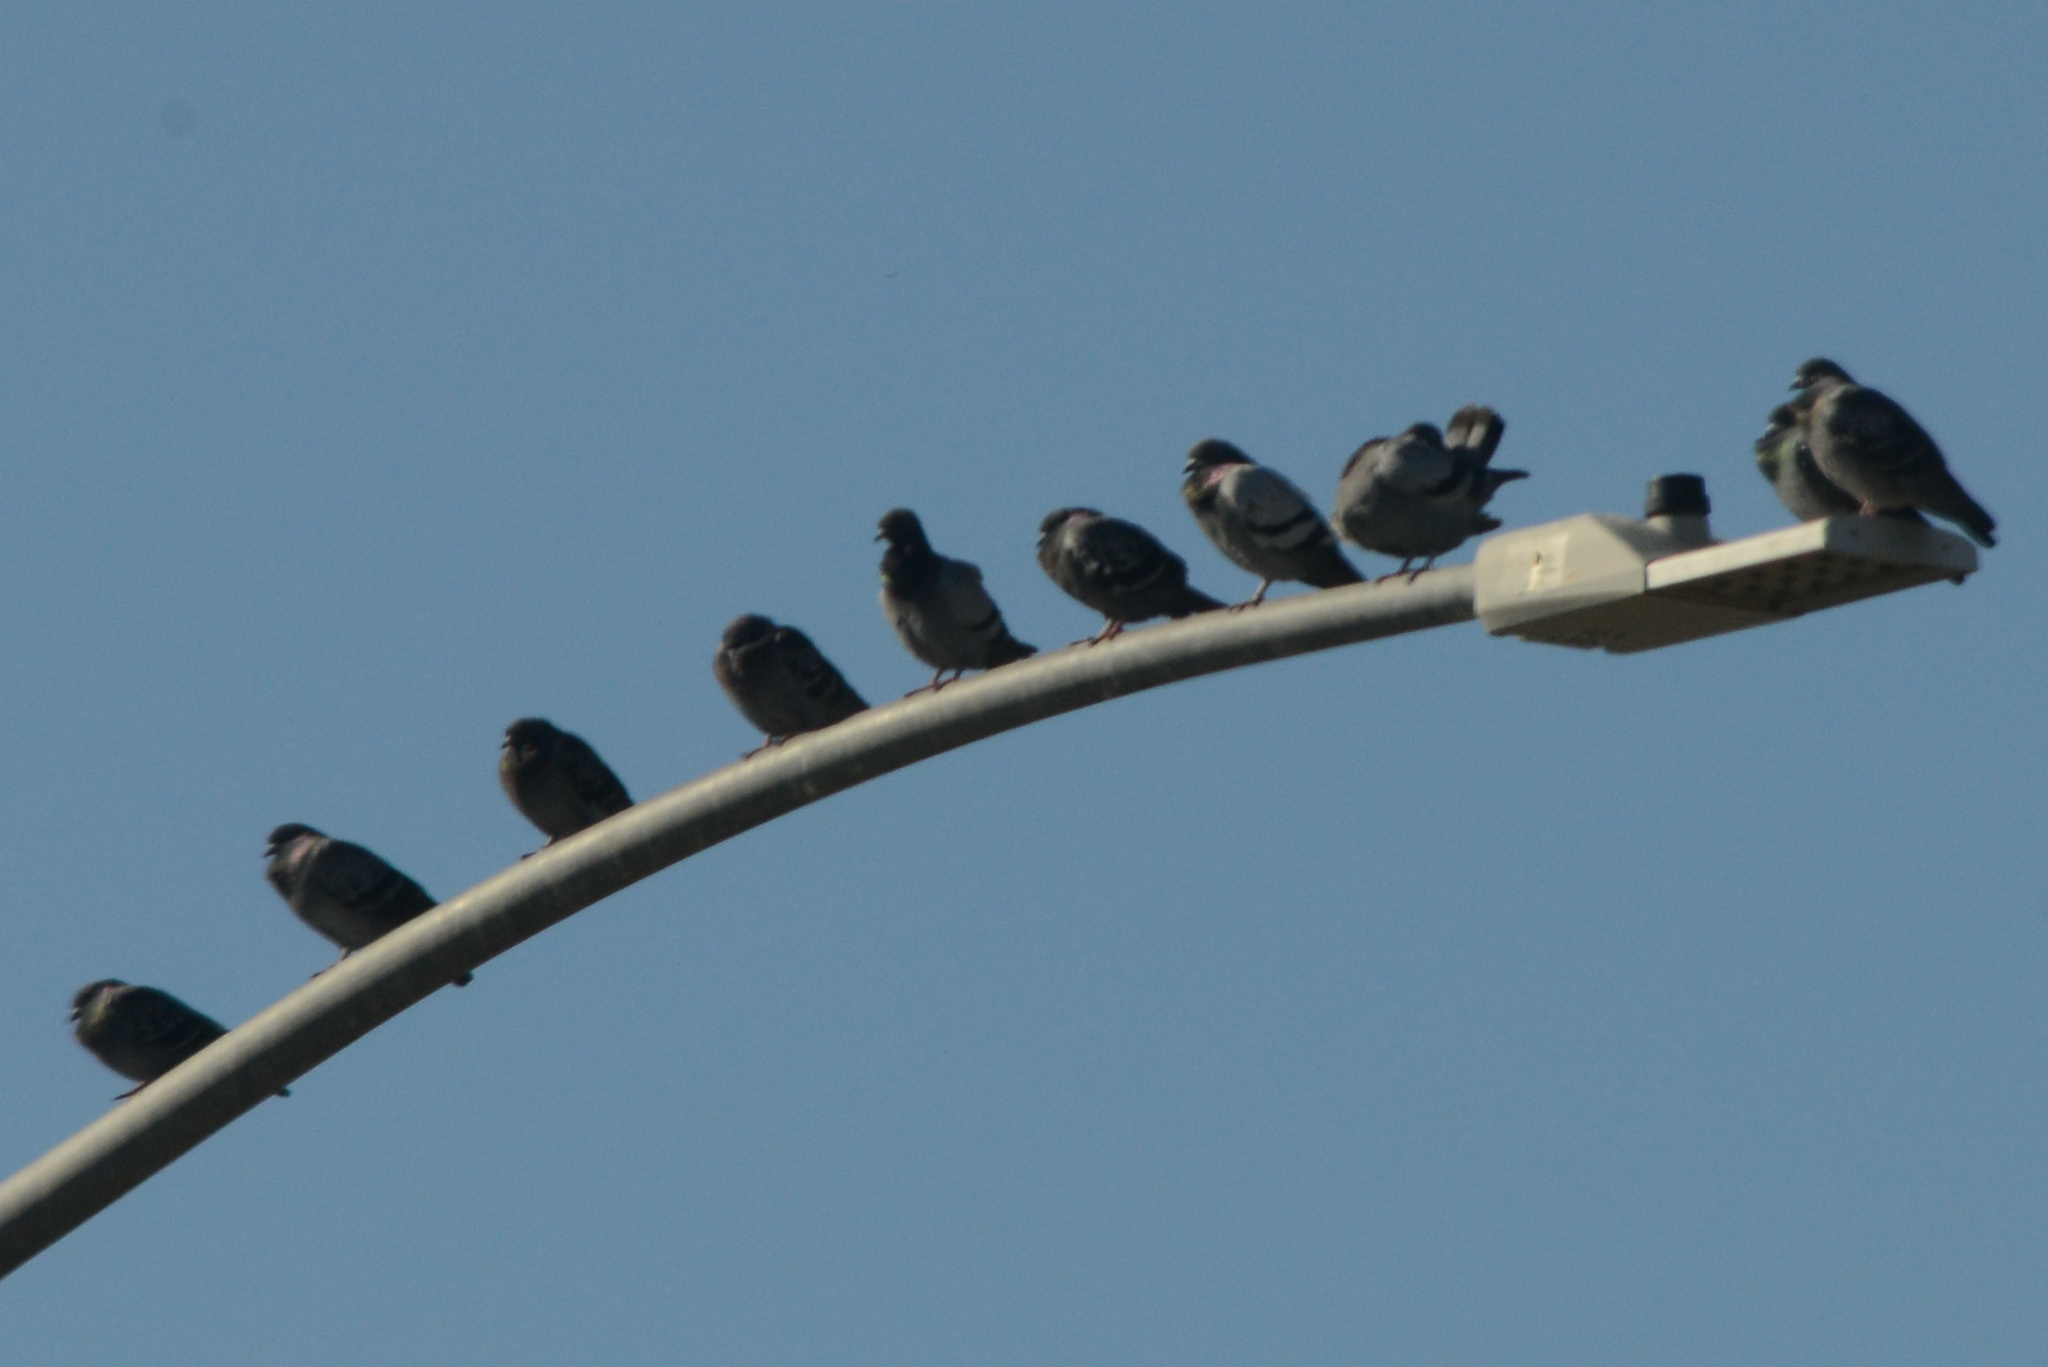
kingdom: Animalia
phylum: Chordata
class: Aves
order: Columbiformes
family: Columbidae
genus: Columba
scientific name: Columba livia
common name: Rock pigeon
